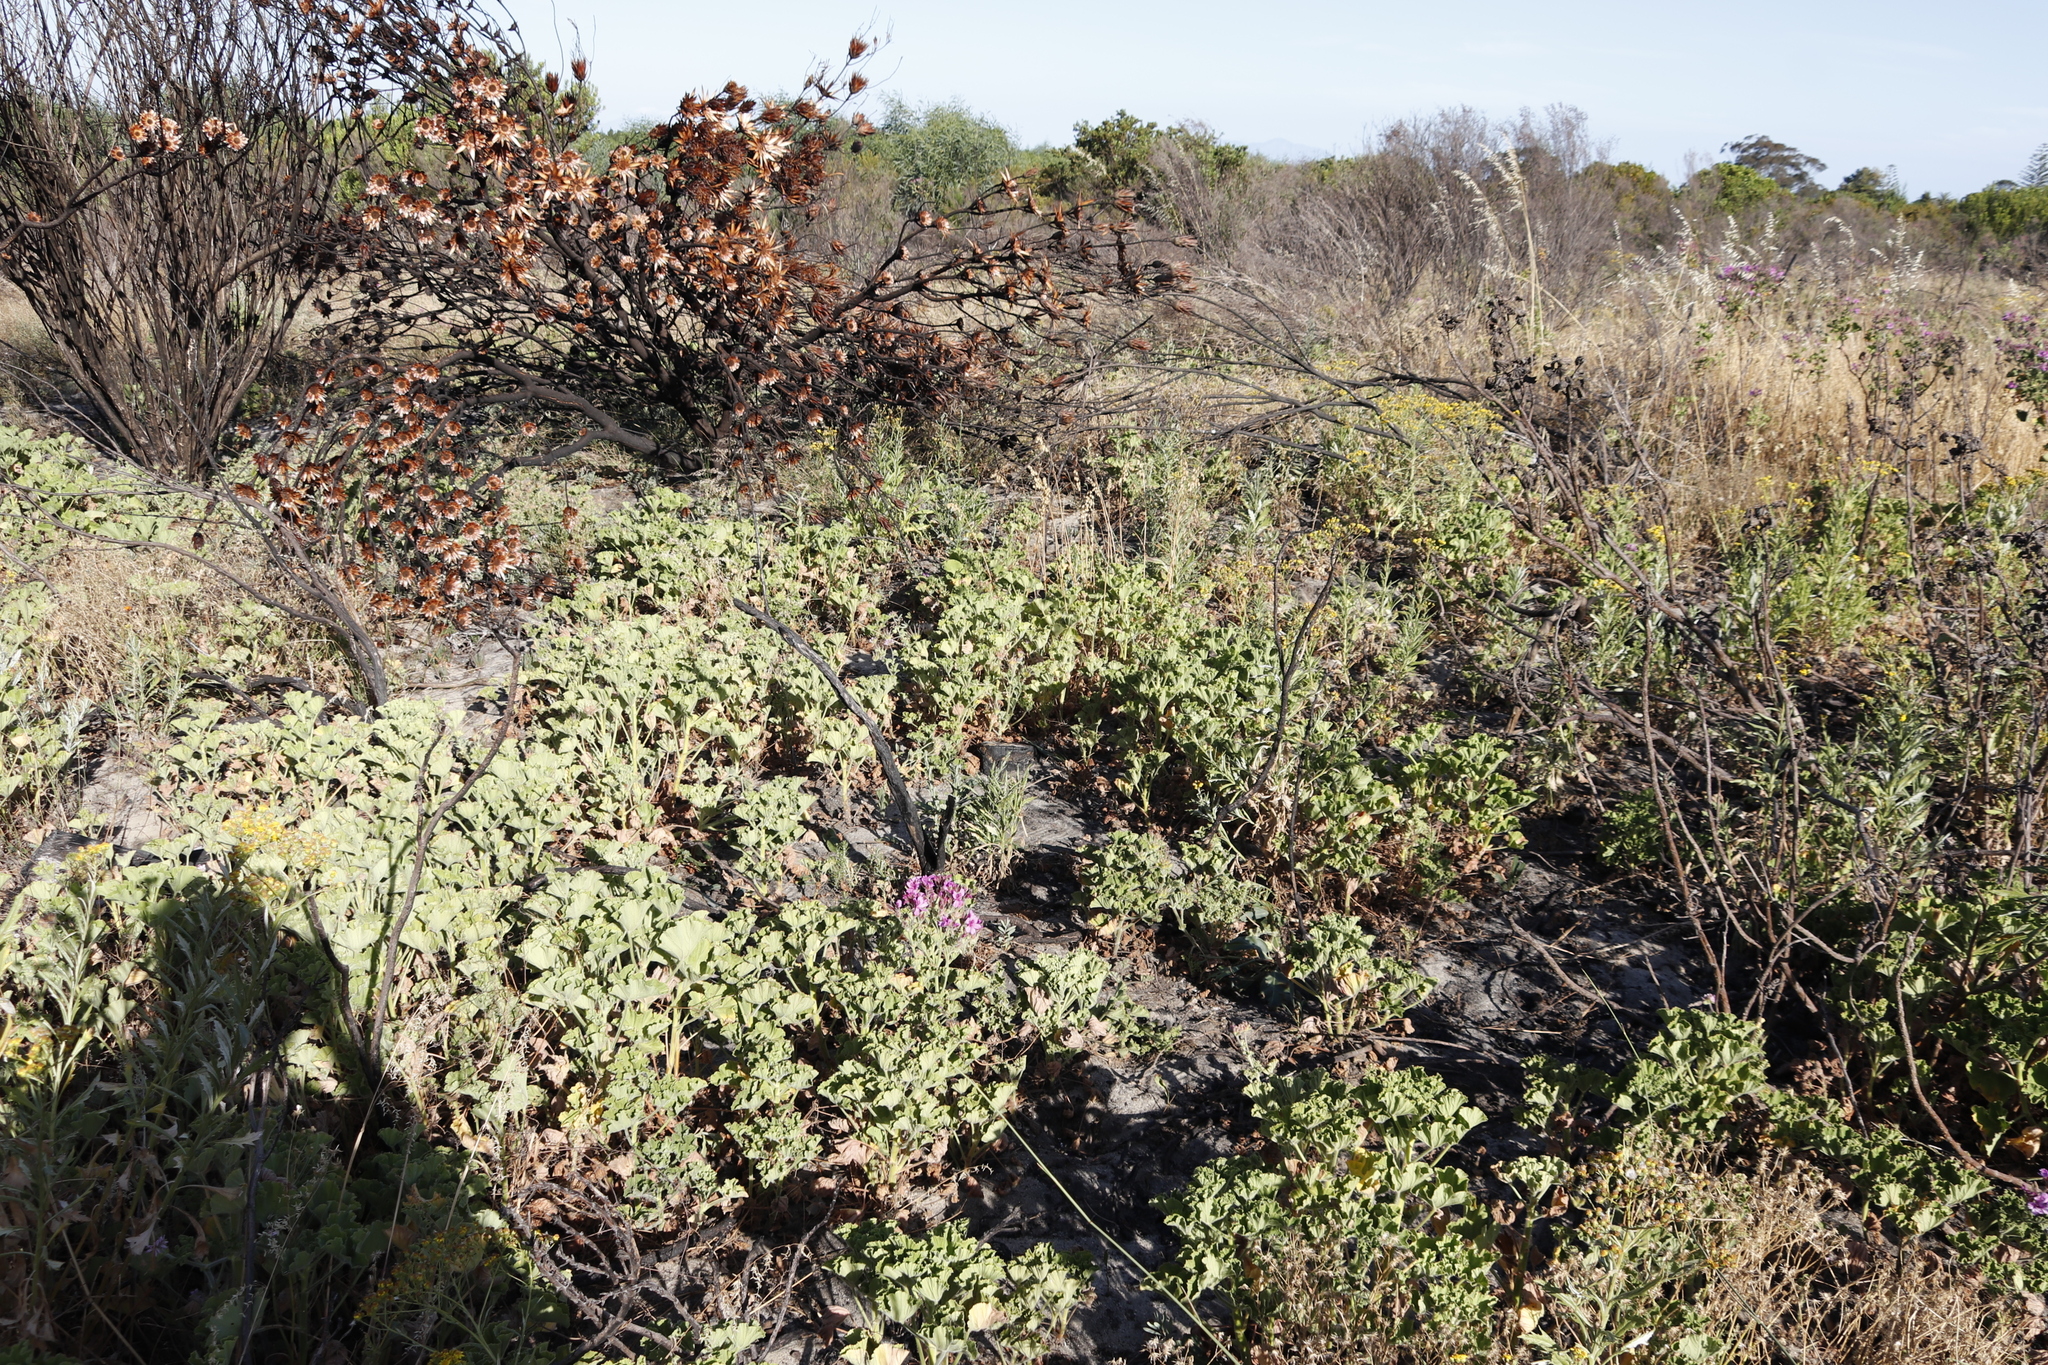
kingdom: Plantae
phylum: Tracheophyta
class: Magnoliopsida
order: Geraniales
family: Geraniaceae
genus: Pelargonium
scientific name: Pelargonium cucullatum
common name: Tree pelargonium
